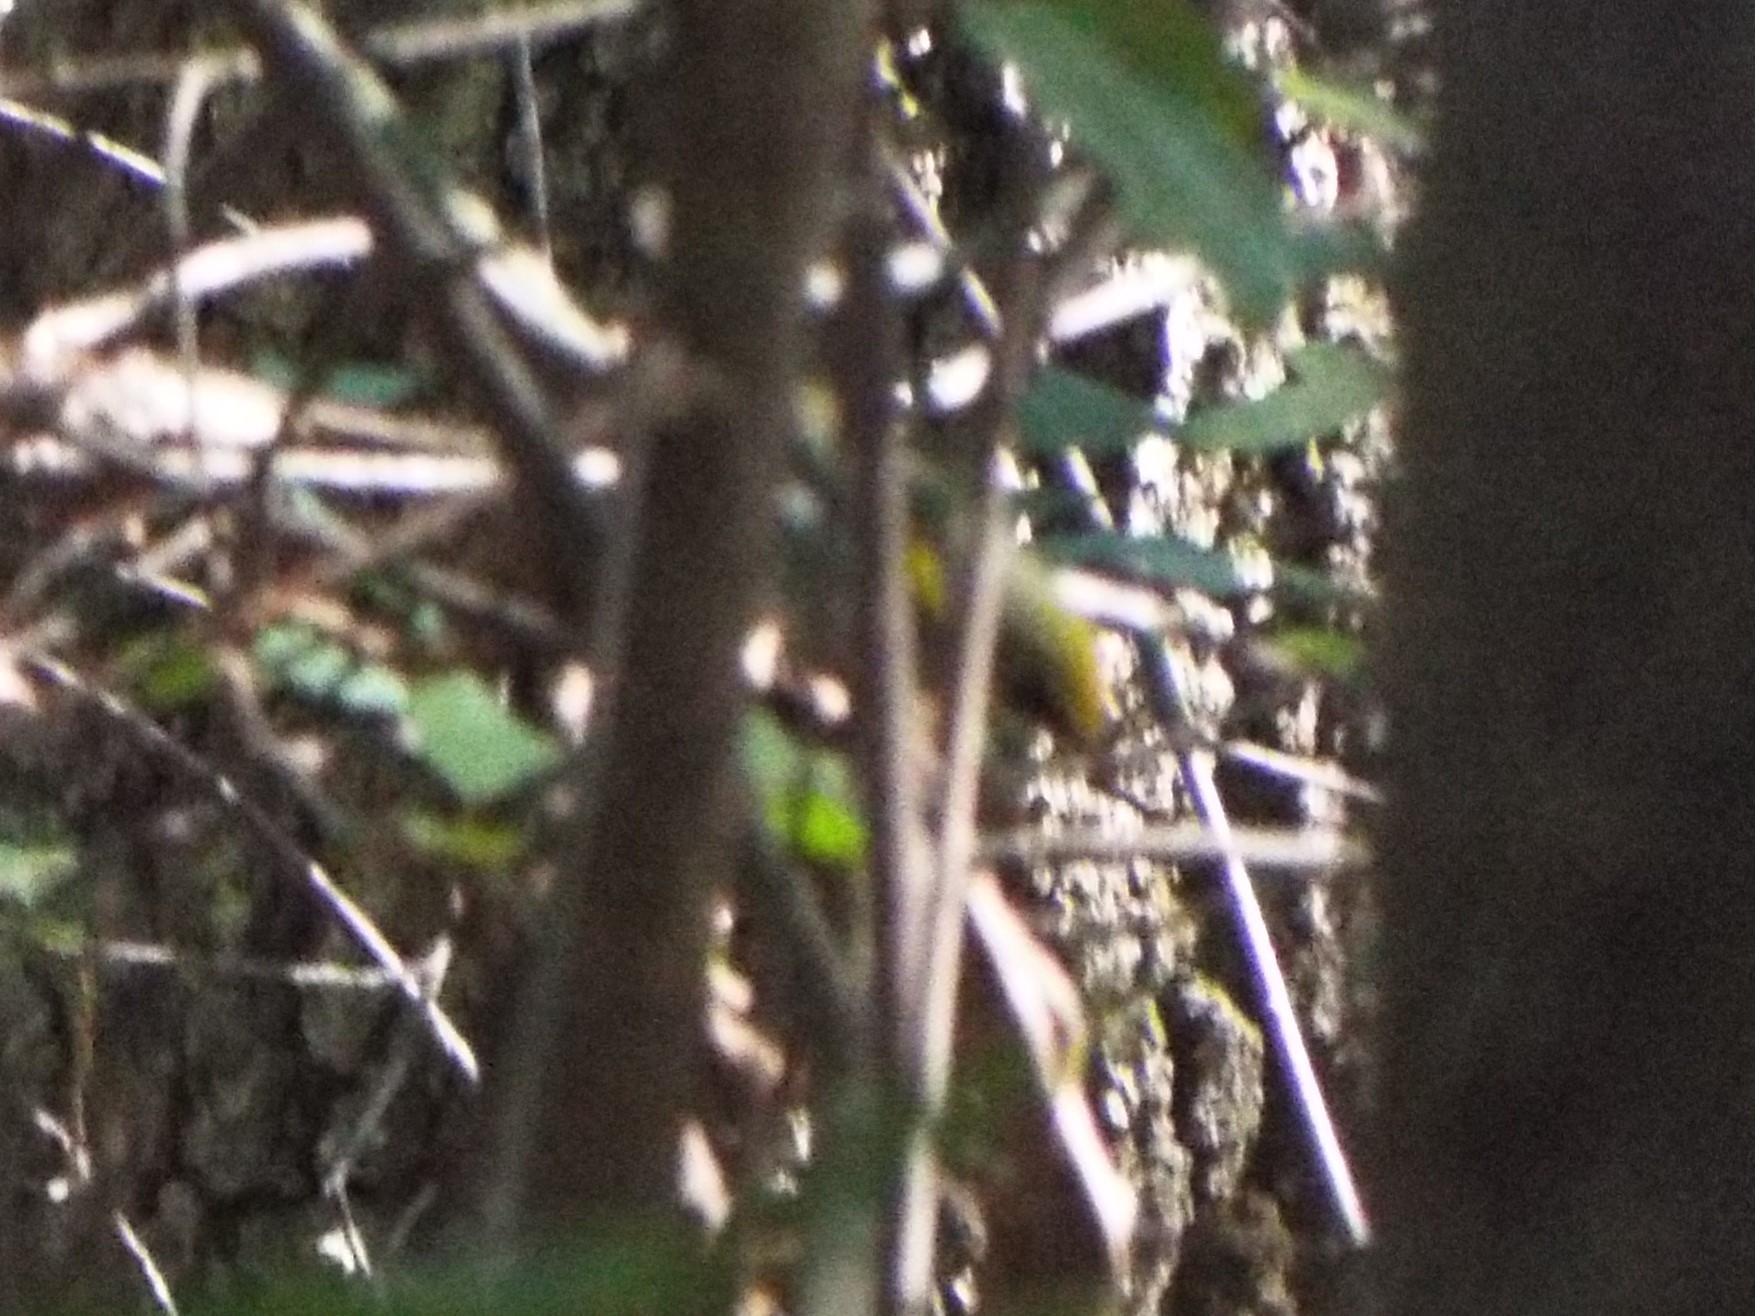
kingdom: Animalia
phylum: Chordata
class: Aves
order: Passeriformes
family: Parulidae
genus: Vermivora
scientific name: Vermivora chrysoptera
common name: Golden-winged warbler
